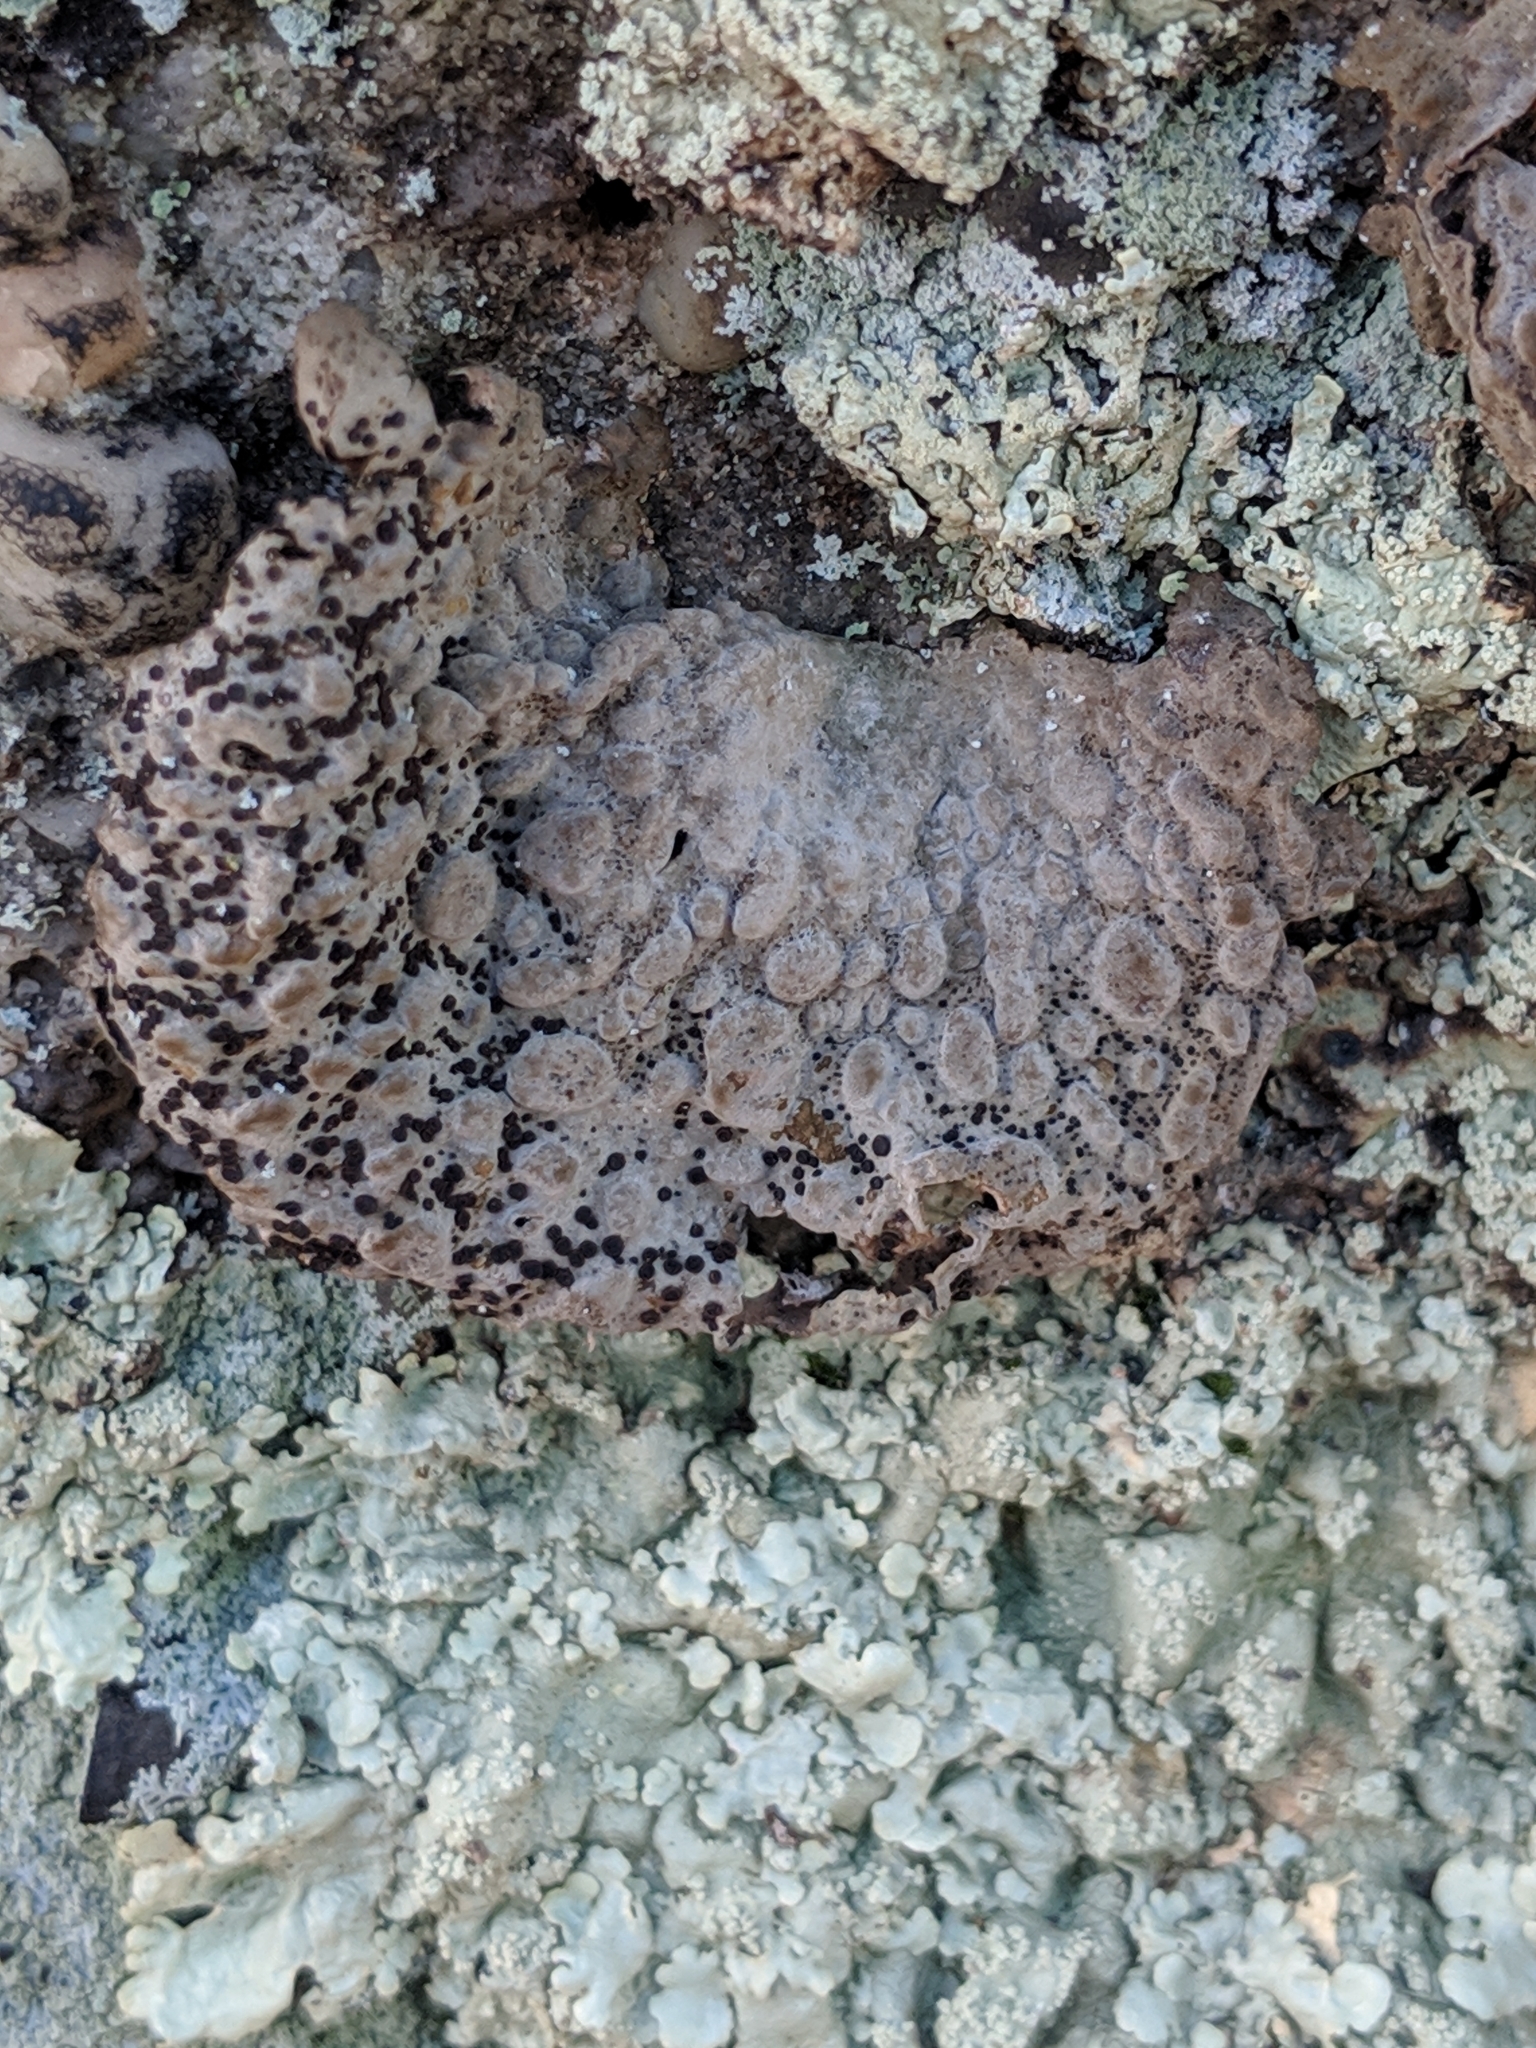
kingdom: Fungi
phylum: Ascomycota
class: Lecanoromycetes
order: Umbilicariales
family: Umbilicariaceae
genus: Lasallia
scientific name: Lasallia papulosa
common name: Common toadskin lichen
